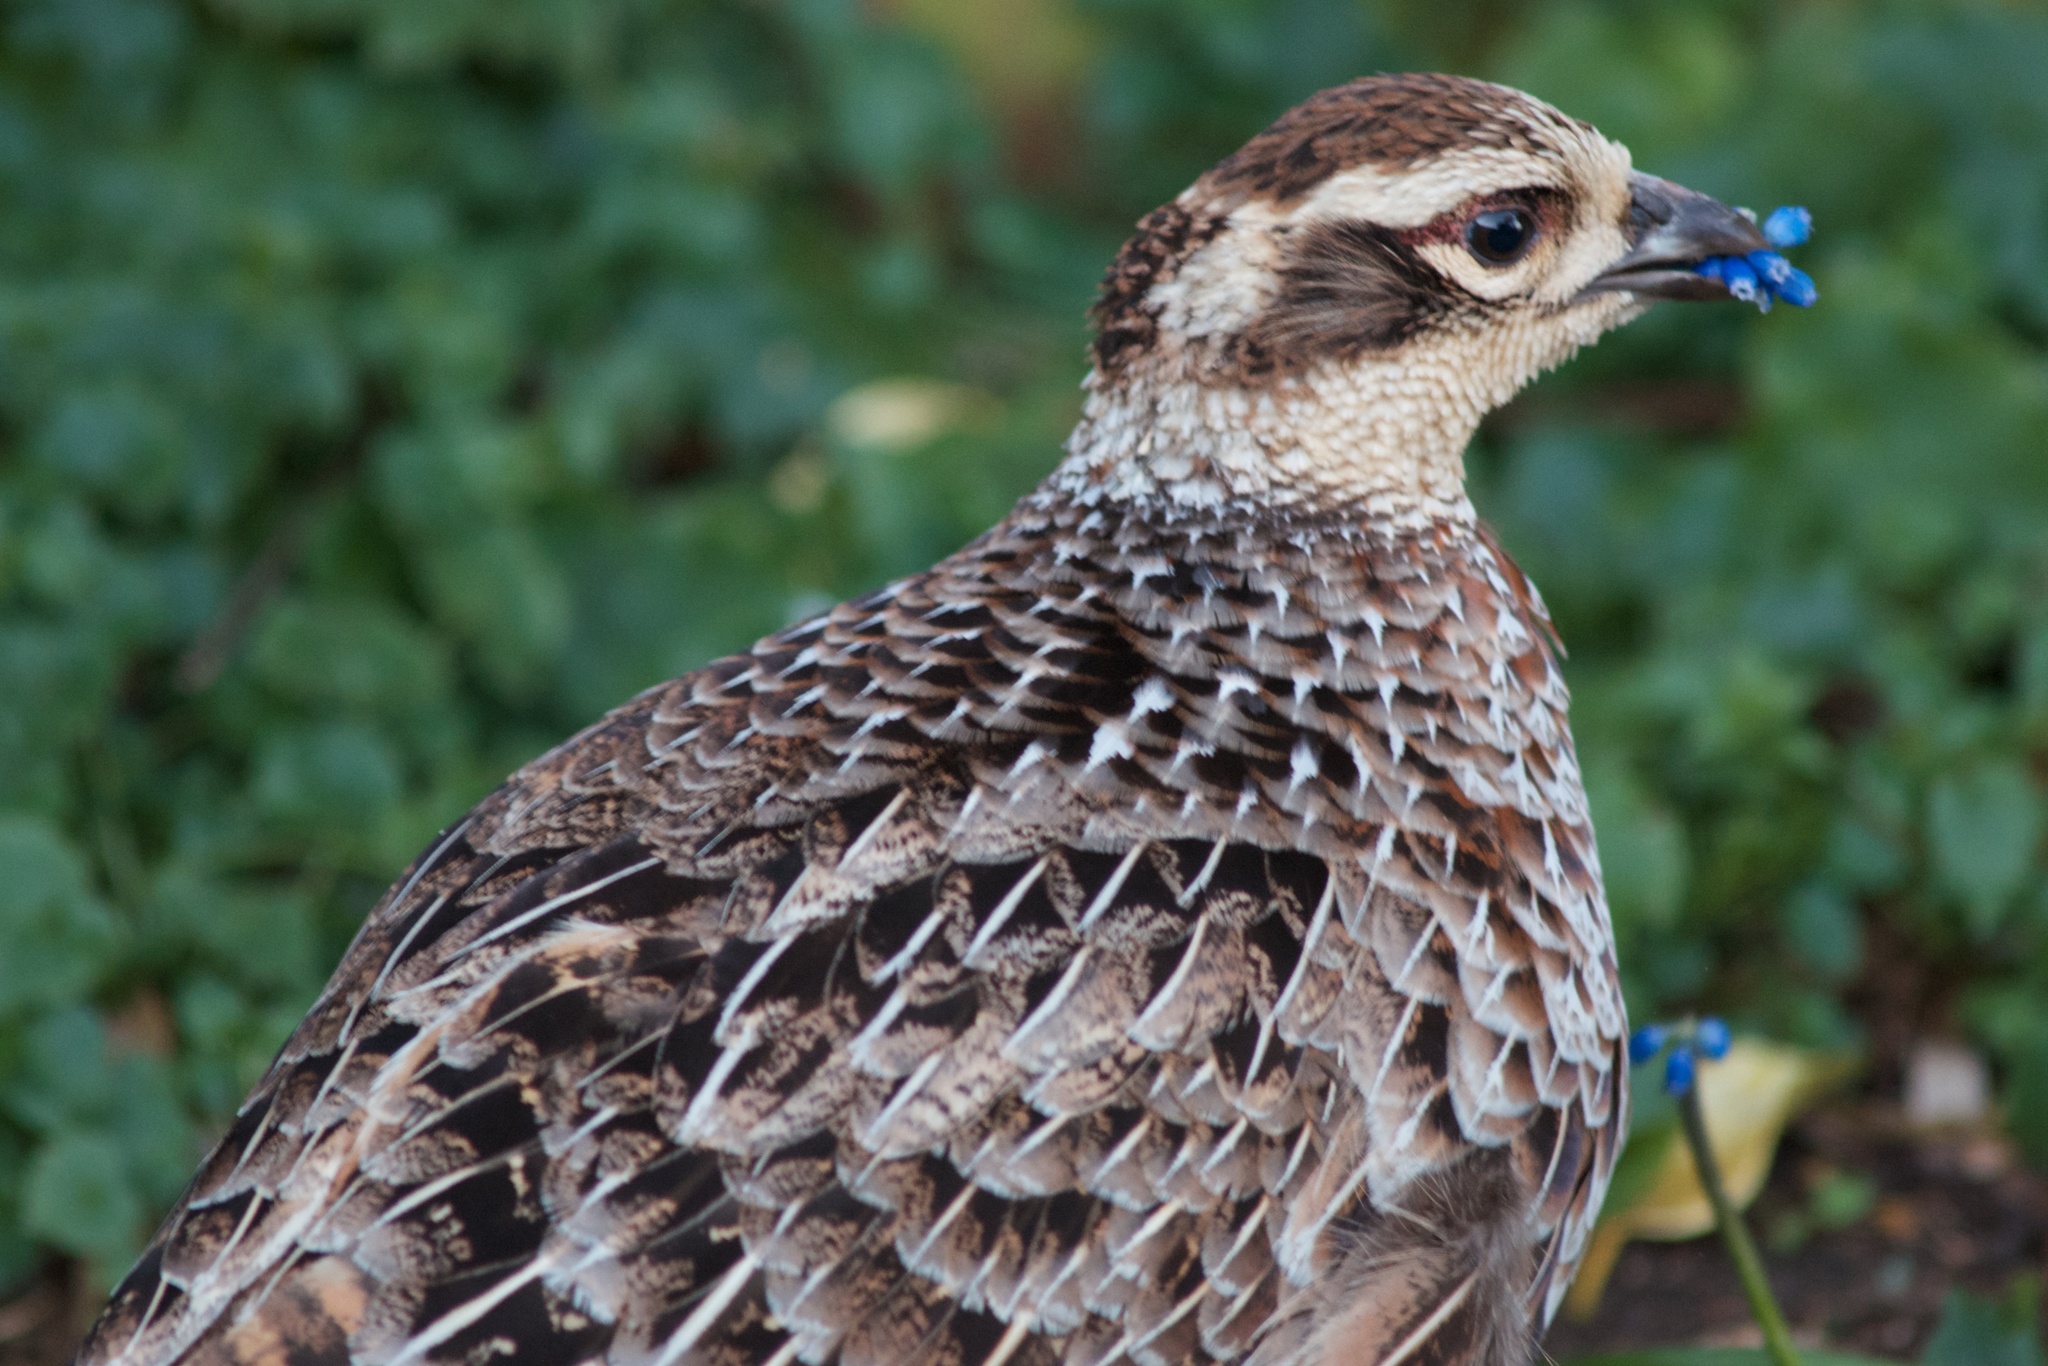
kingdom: Animalia
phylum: Chordata
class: Aves
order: Galliformes
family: Phasianidae
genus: Syrmaticus
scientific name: Syrmaticus reevesii
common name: Reeves's pheasant
